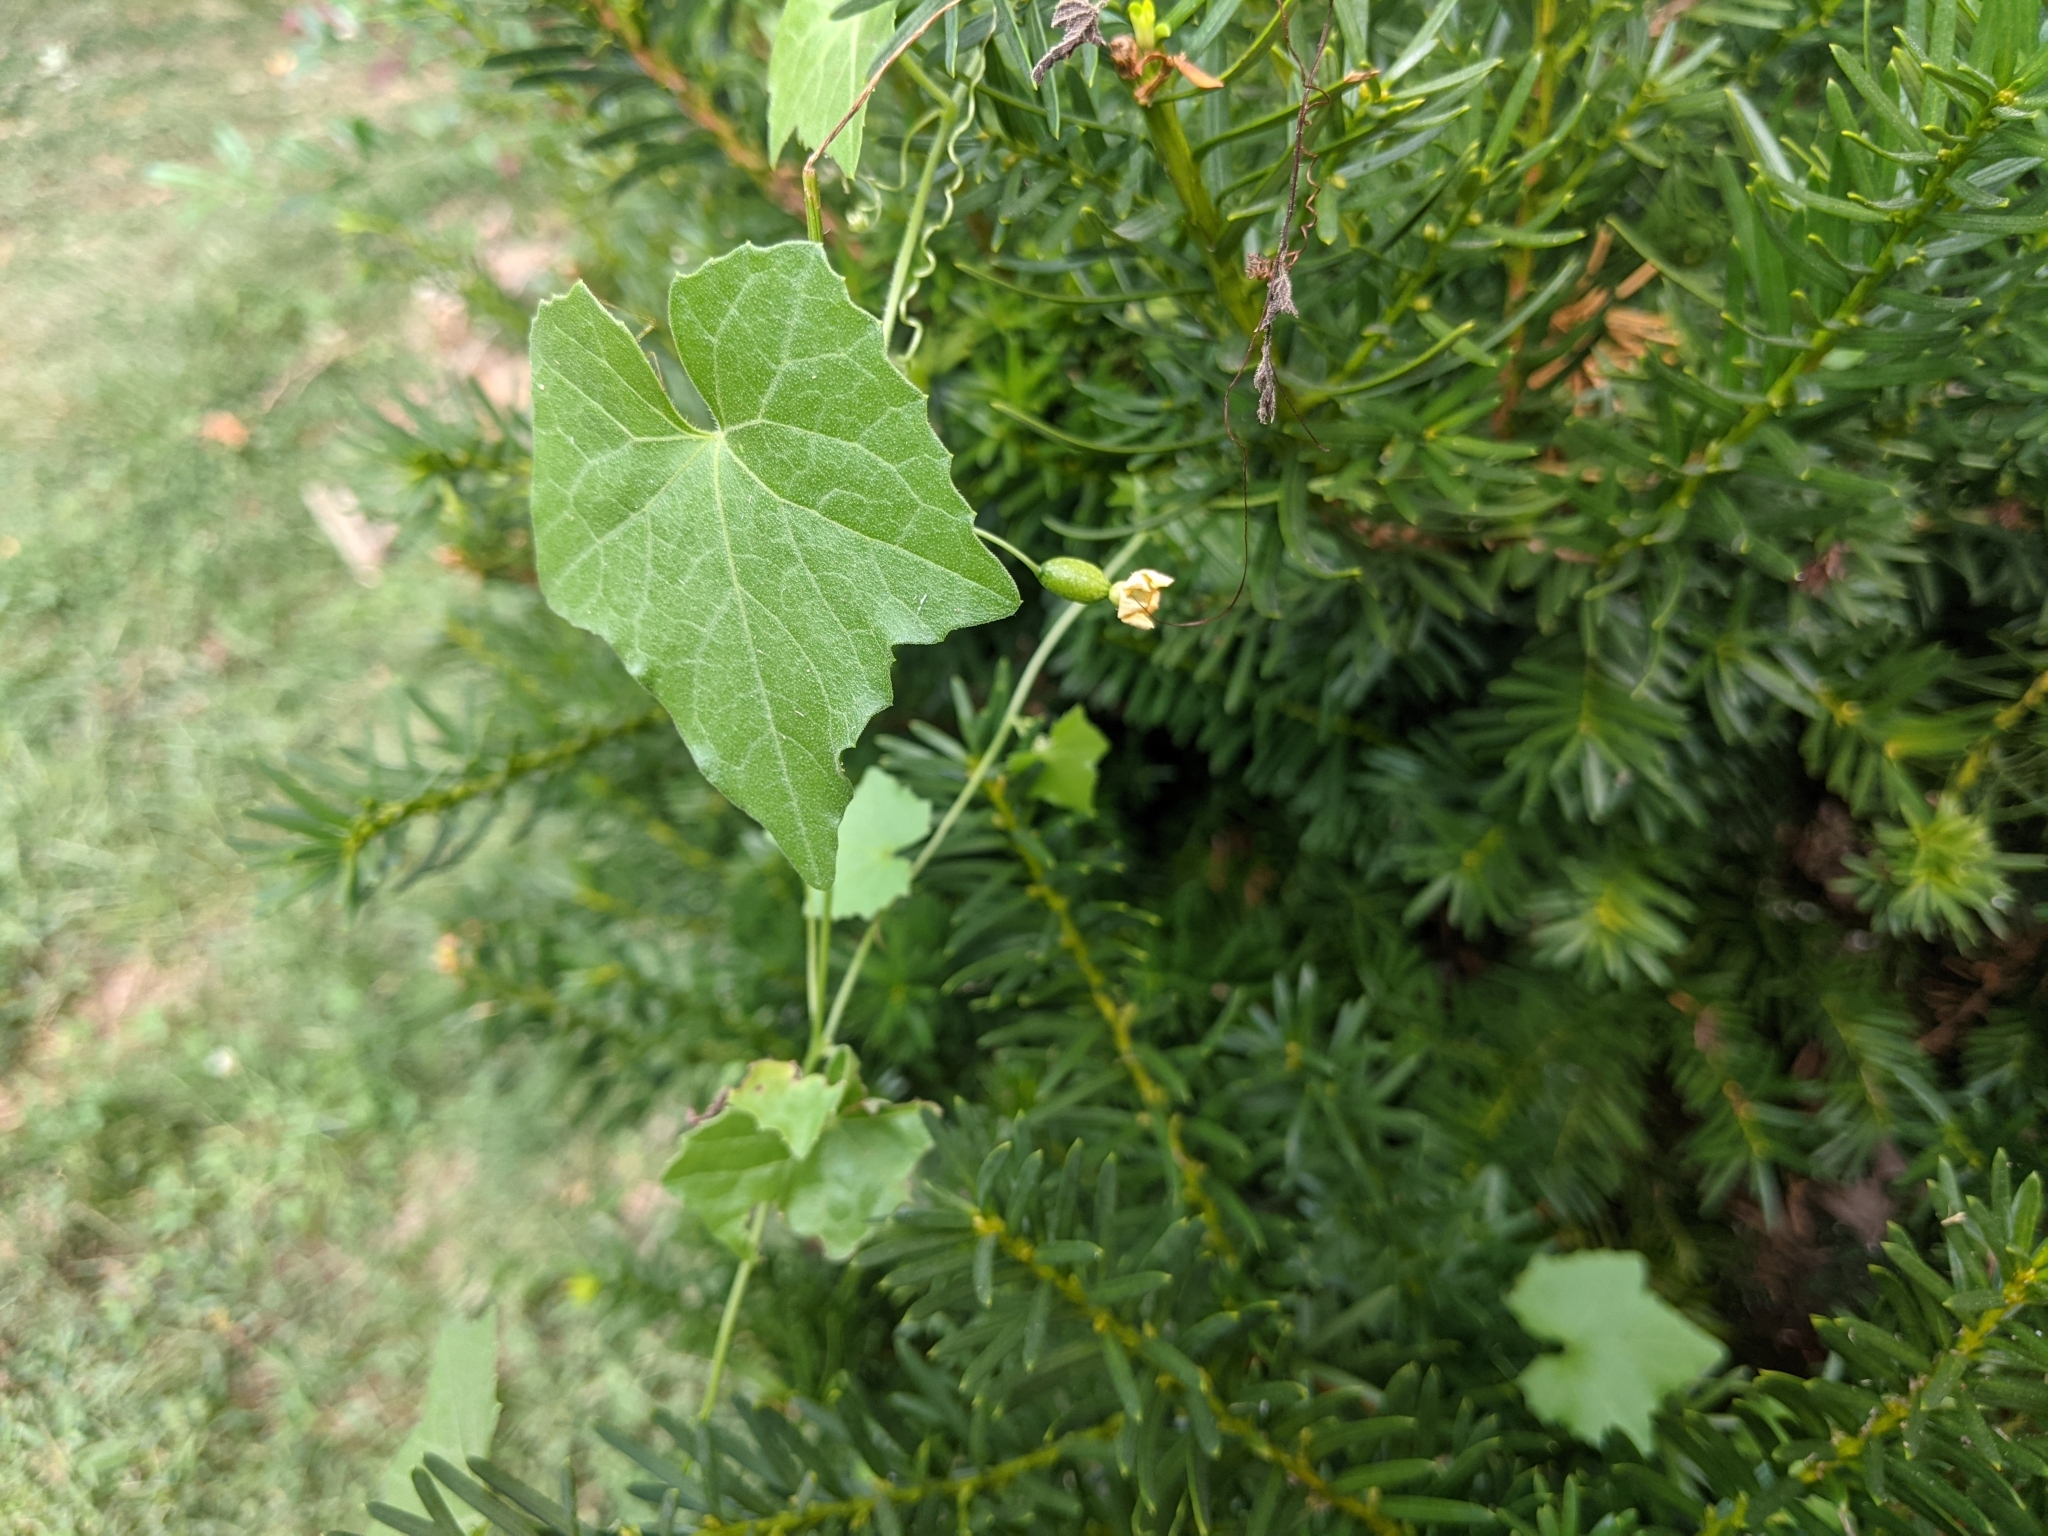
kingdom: Plantae
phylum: Tracheophyta
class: Magnoliopsida
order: Cucurbitales
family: Cucurbitaceae
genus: Melothria
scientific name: Melothria pendula
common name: Creeping-cucumber
